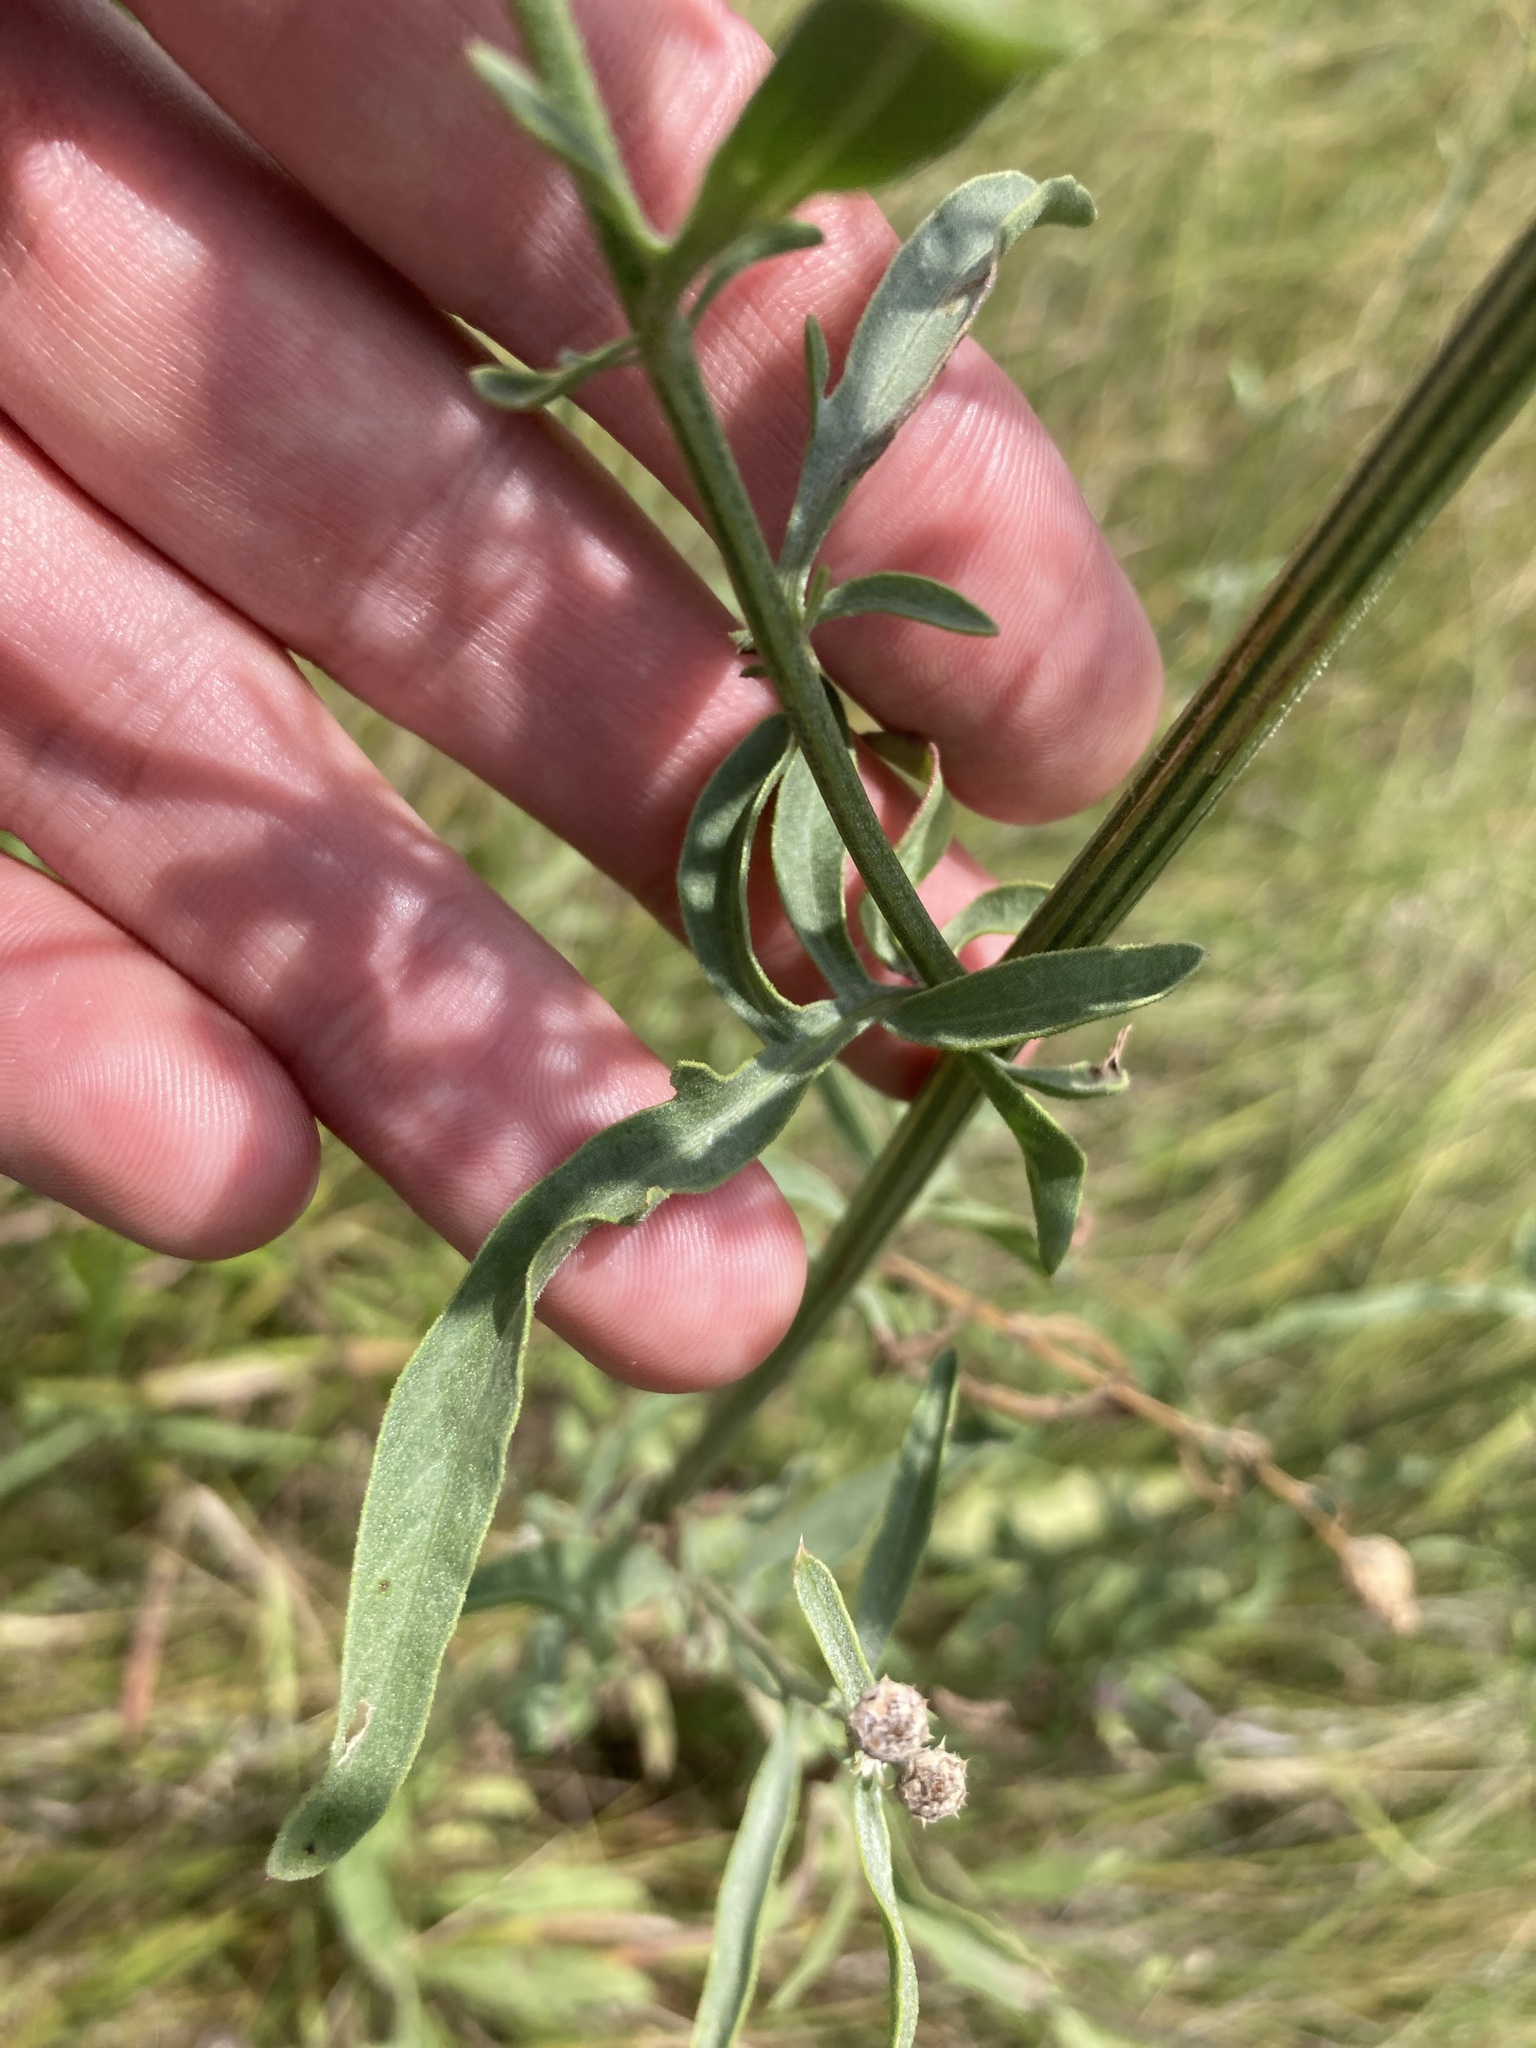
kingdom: Plantae
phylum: Tracheophyta
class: Magnoliopsida
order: Asterales
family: Asteraceae
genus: Centaurea
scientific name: Centaurea scabiosa
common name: Greater knapweed
